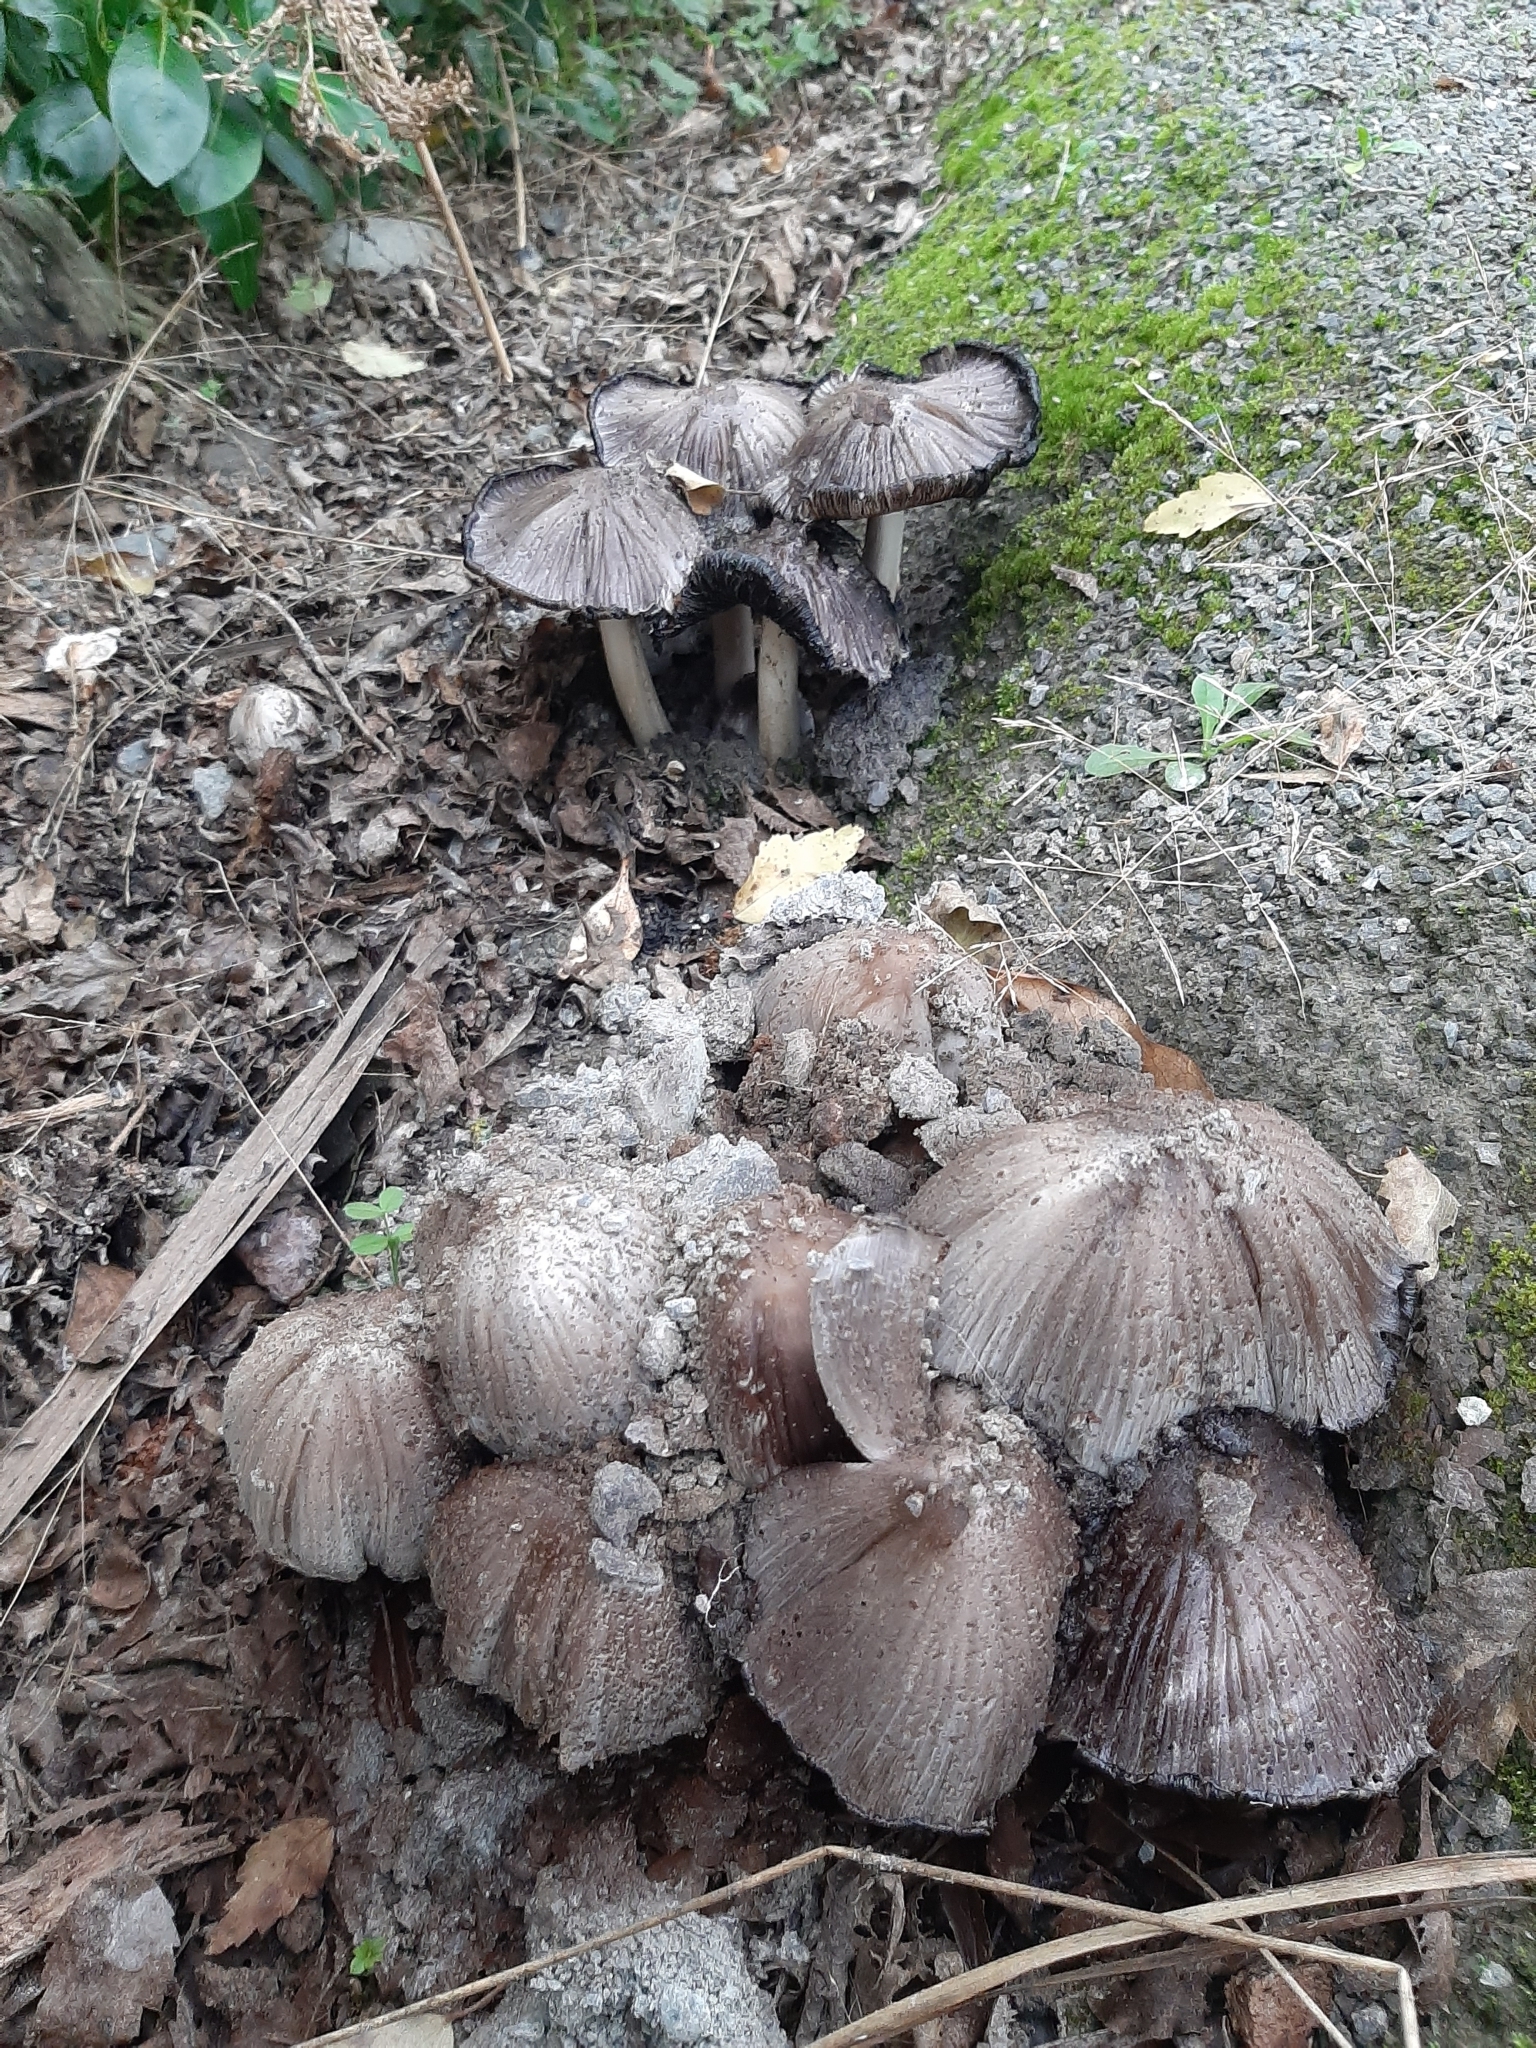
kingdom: Fungi
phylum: Basidiomycota
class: Agaricomycetes
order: Agaricales
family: Psathyrellaceae
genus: Coprinopsis
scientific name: Coprinopsis atramentaria
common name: Common ink-cap
